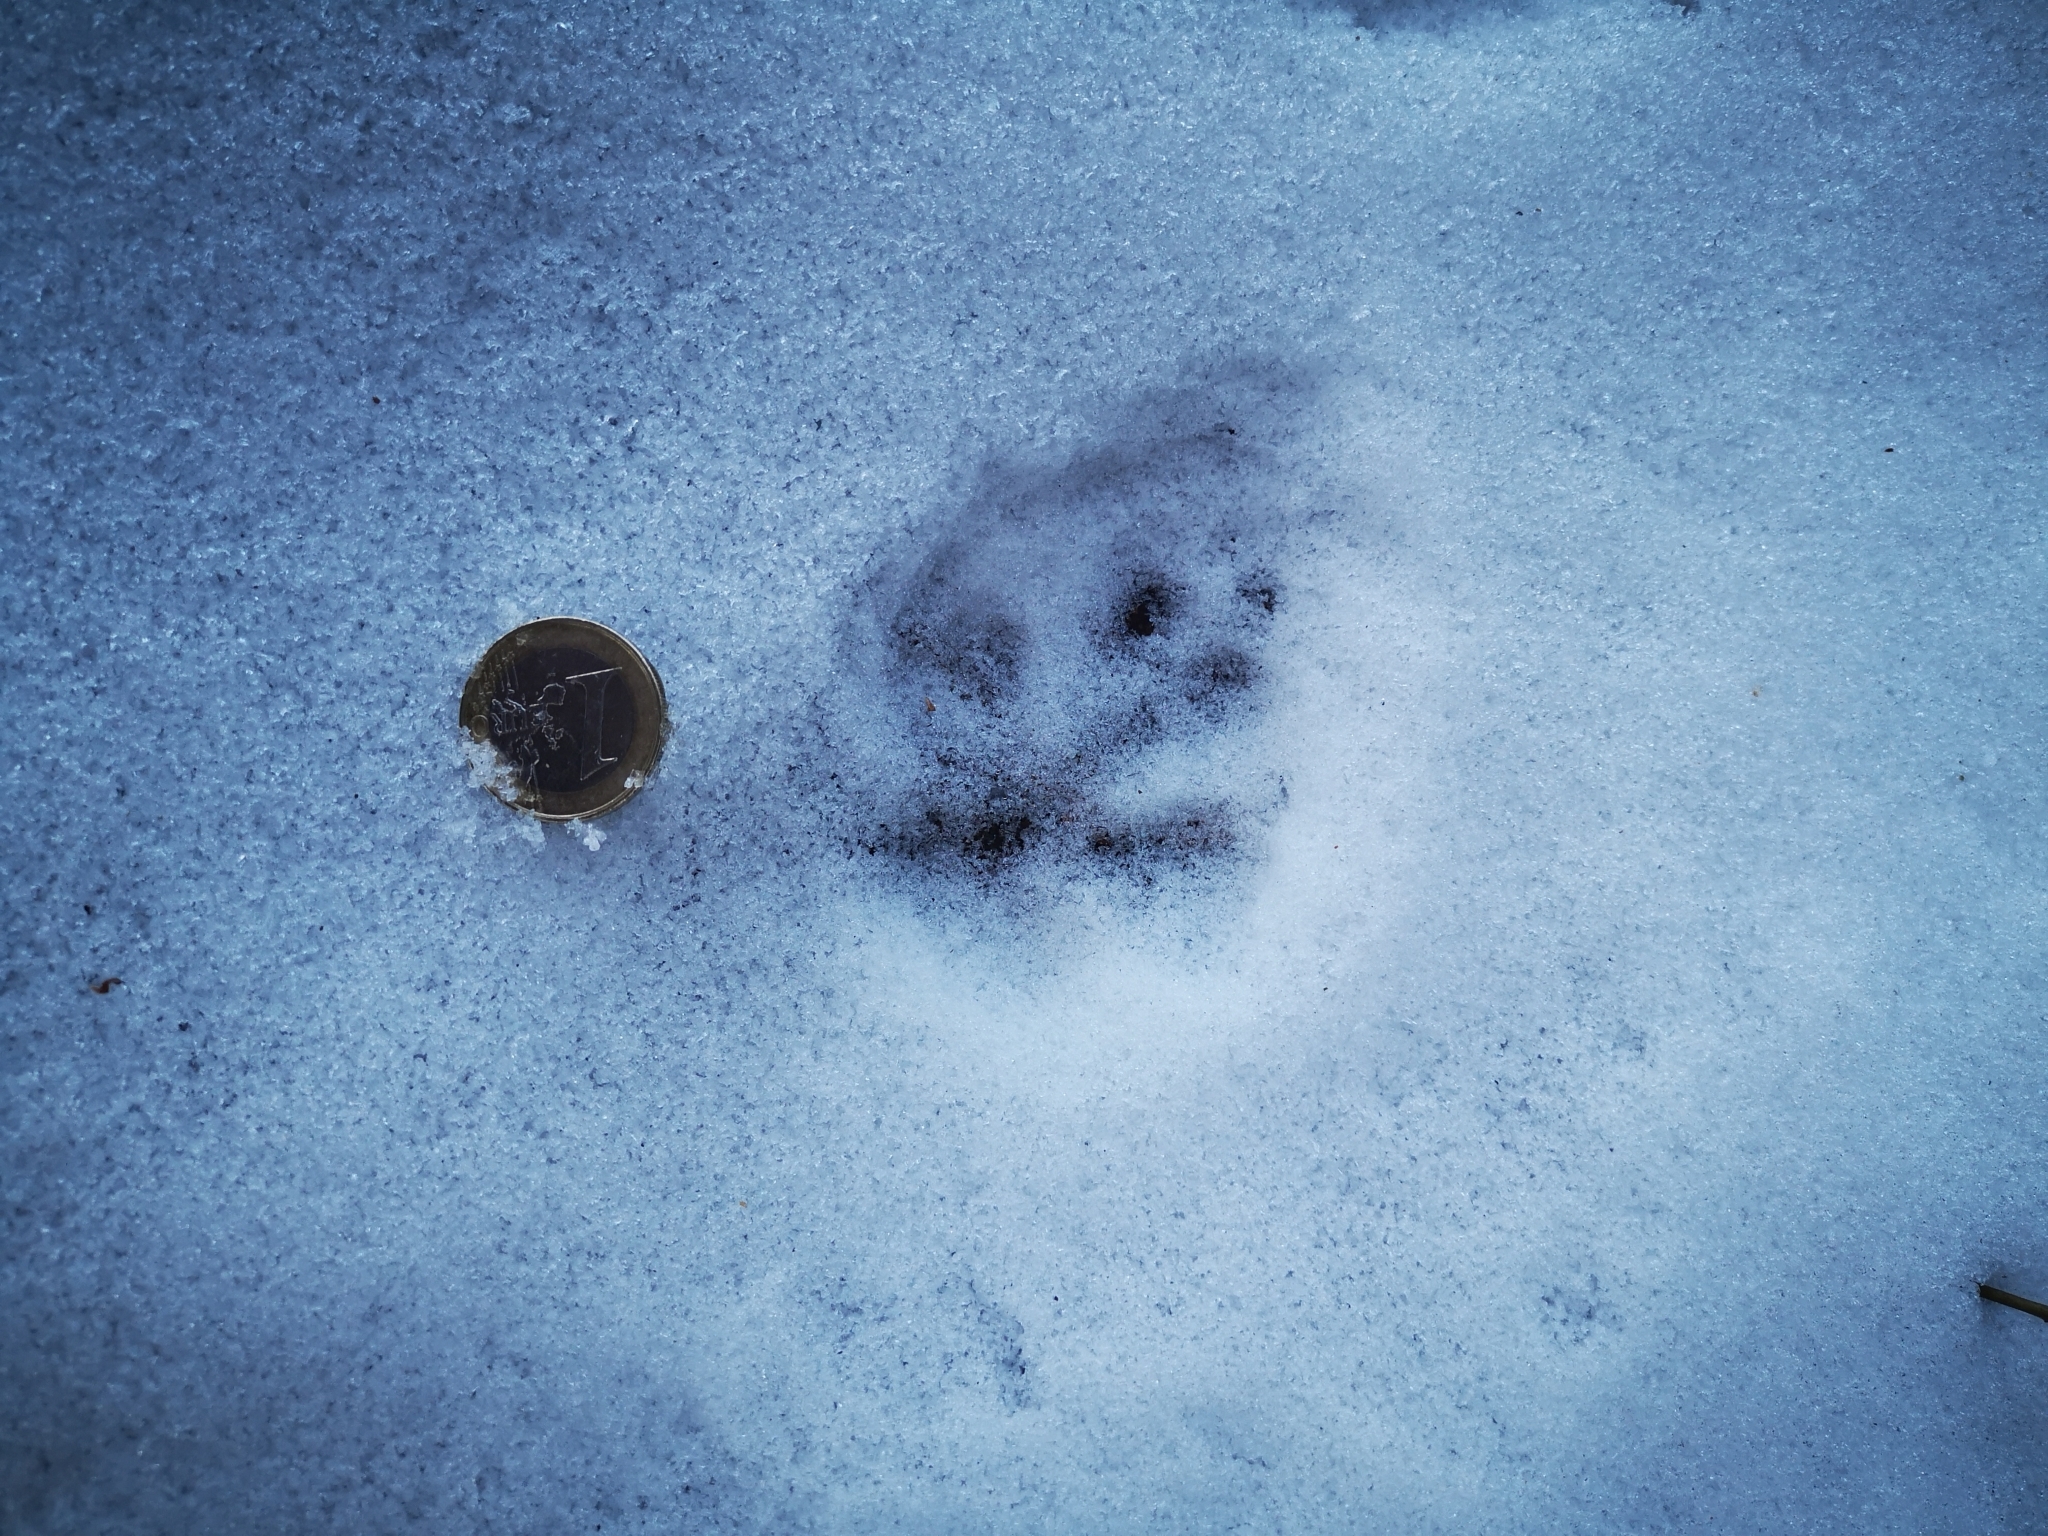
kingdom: Animalia
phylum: Chordata
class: Mammalia
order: Carnivora
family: Canidae
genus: Vulpes
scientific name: Vulpes vulpes
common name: Red fox
